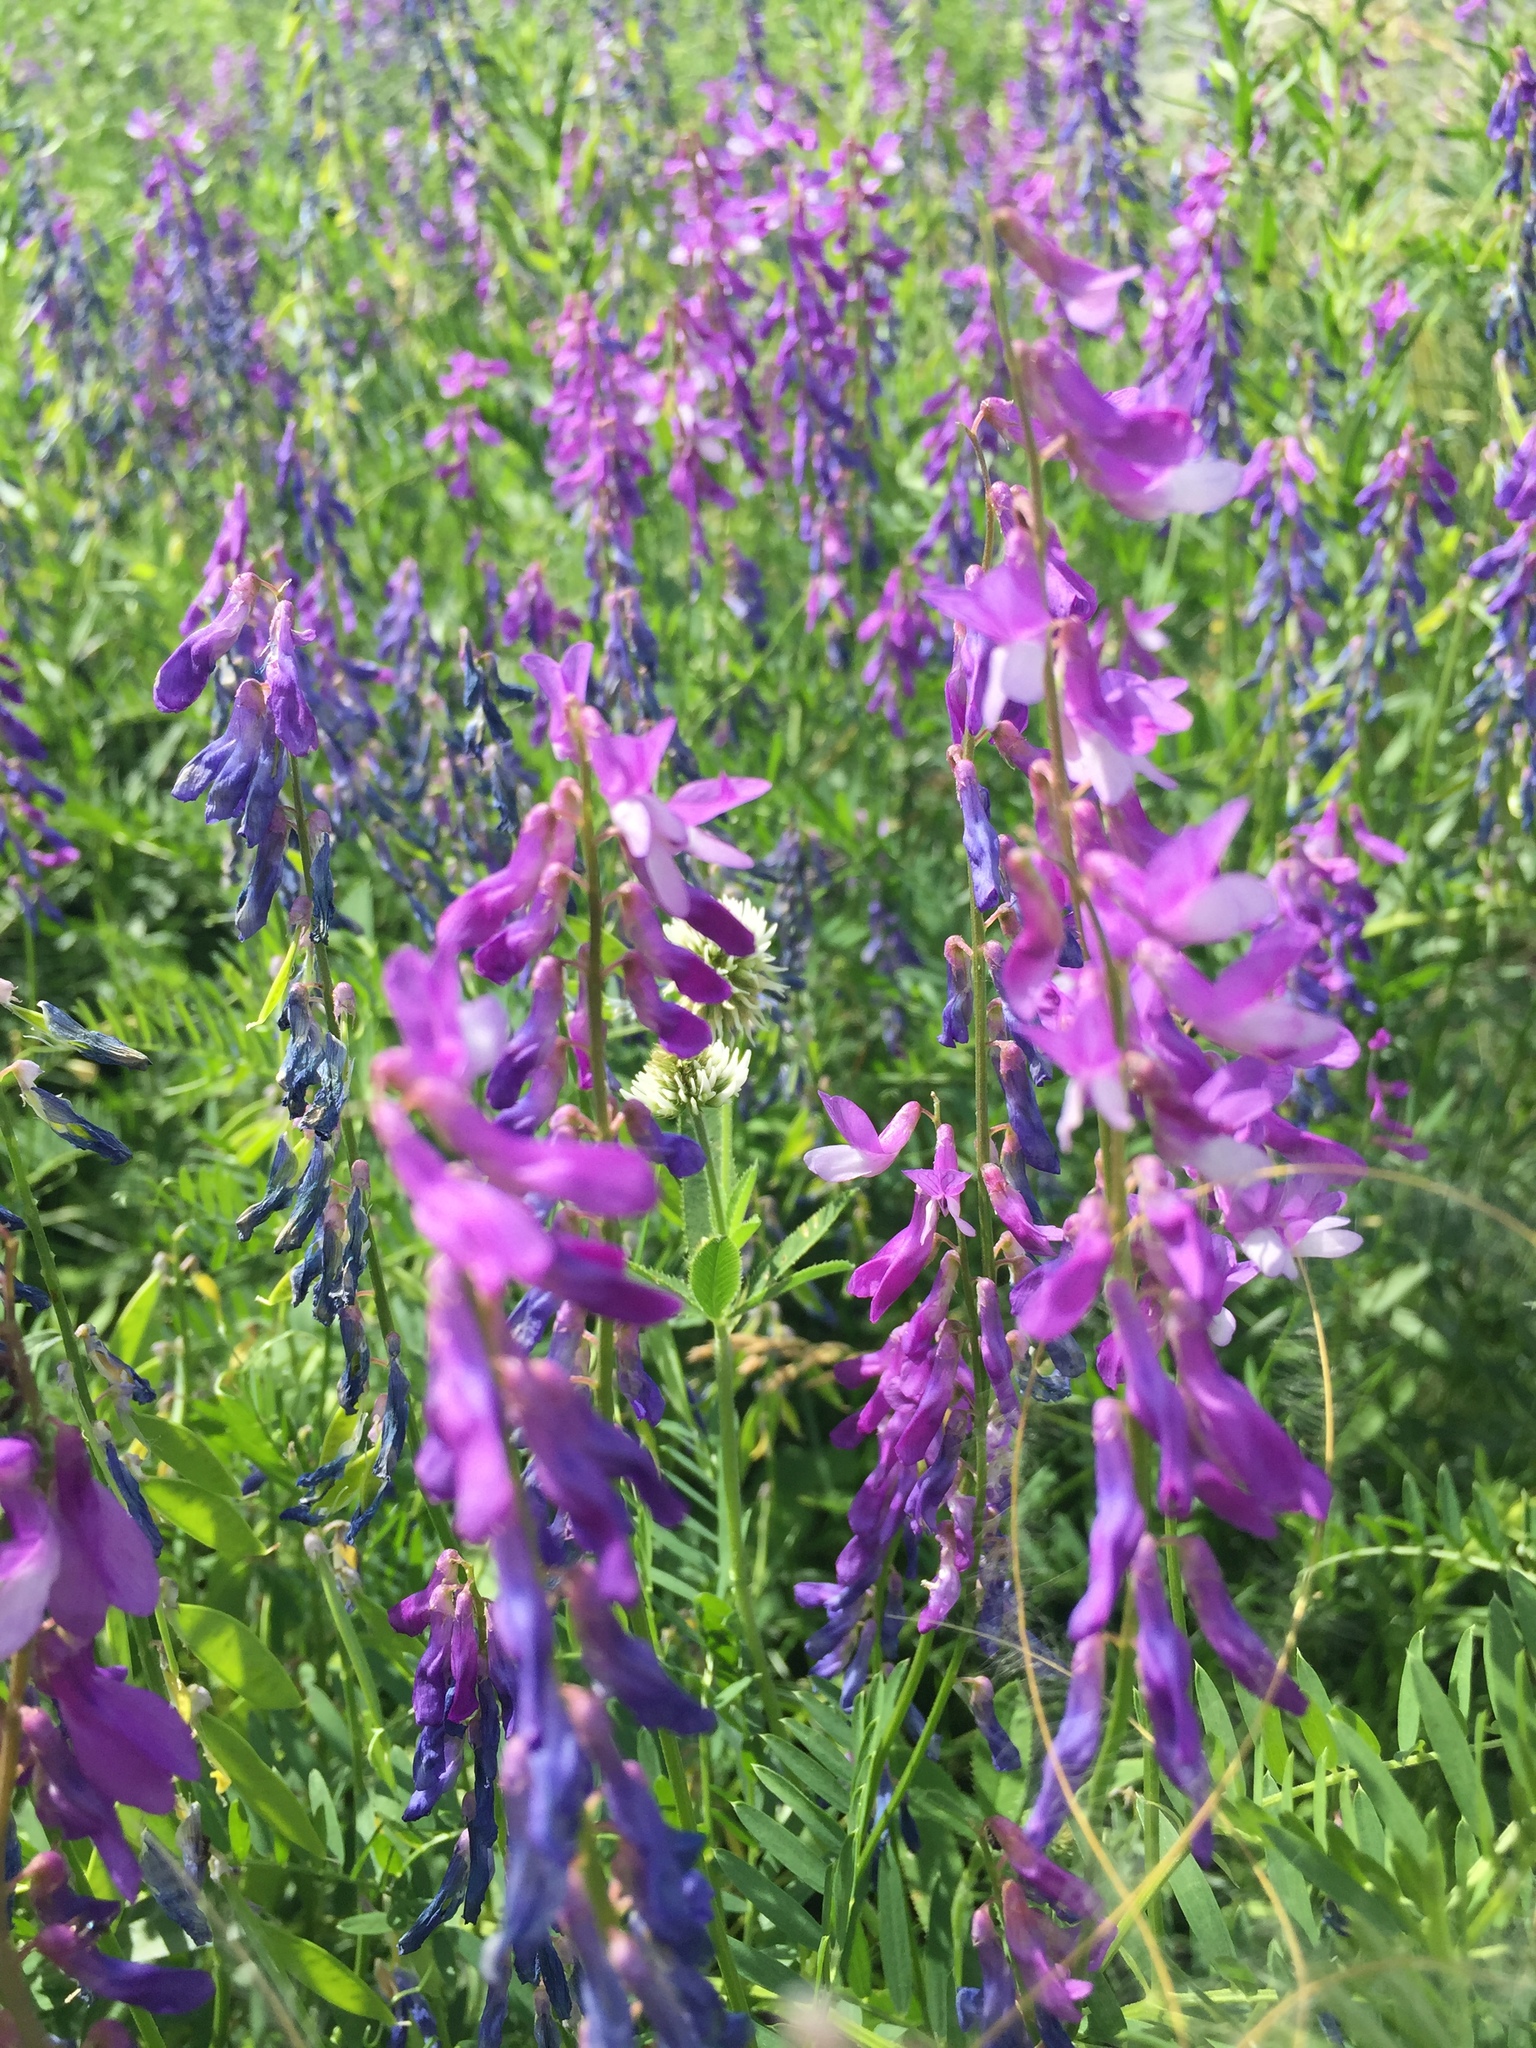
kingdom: Plantae
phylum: Tracheophyta
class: Magnoliopsida
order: Fabales
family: Fabaceae
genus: Vicia
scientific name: Vicia cracca
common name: Bird vetch
